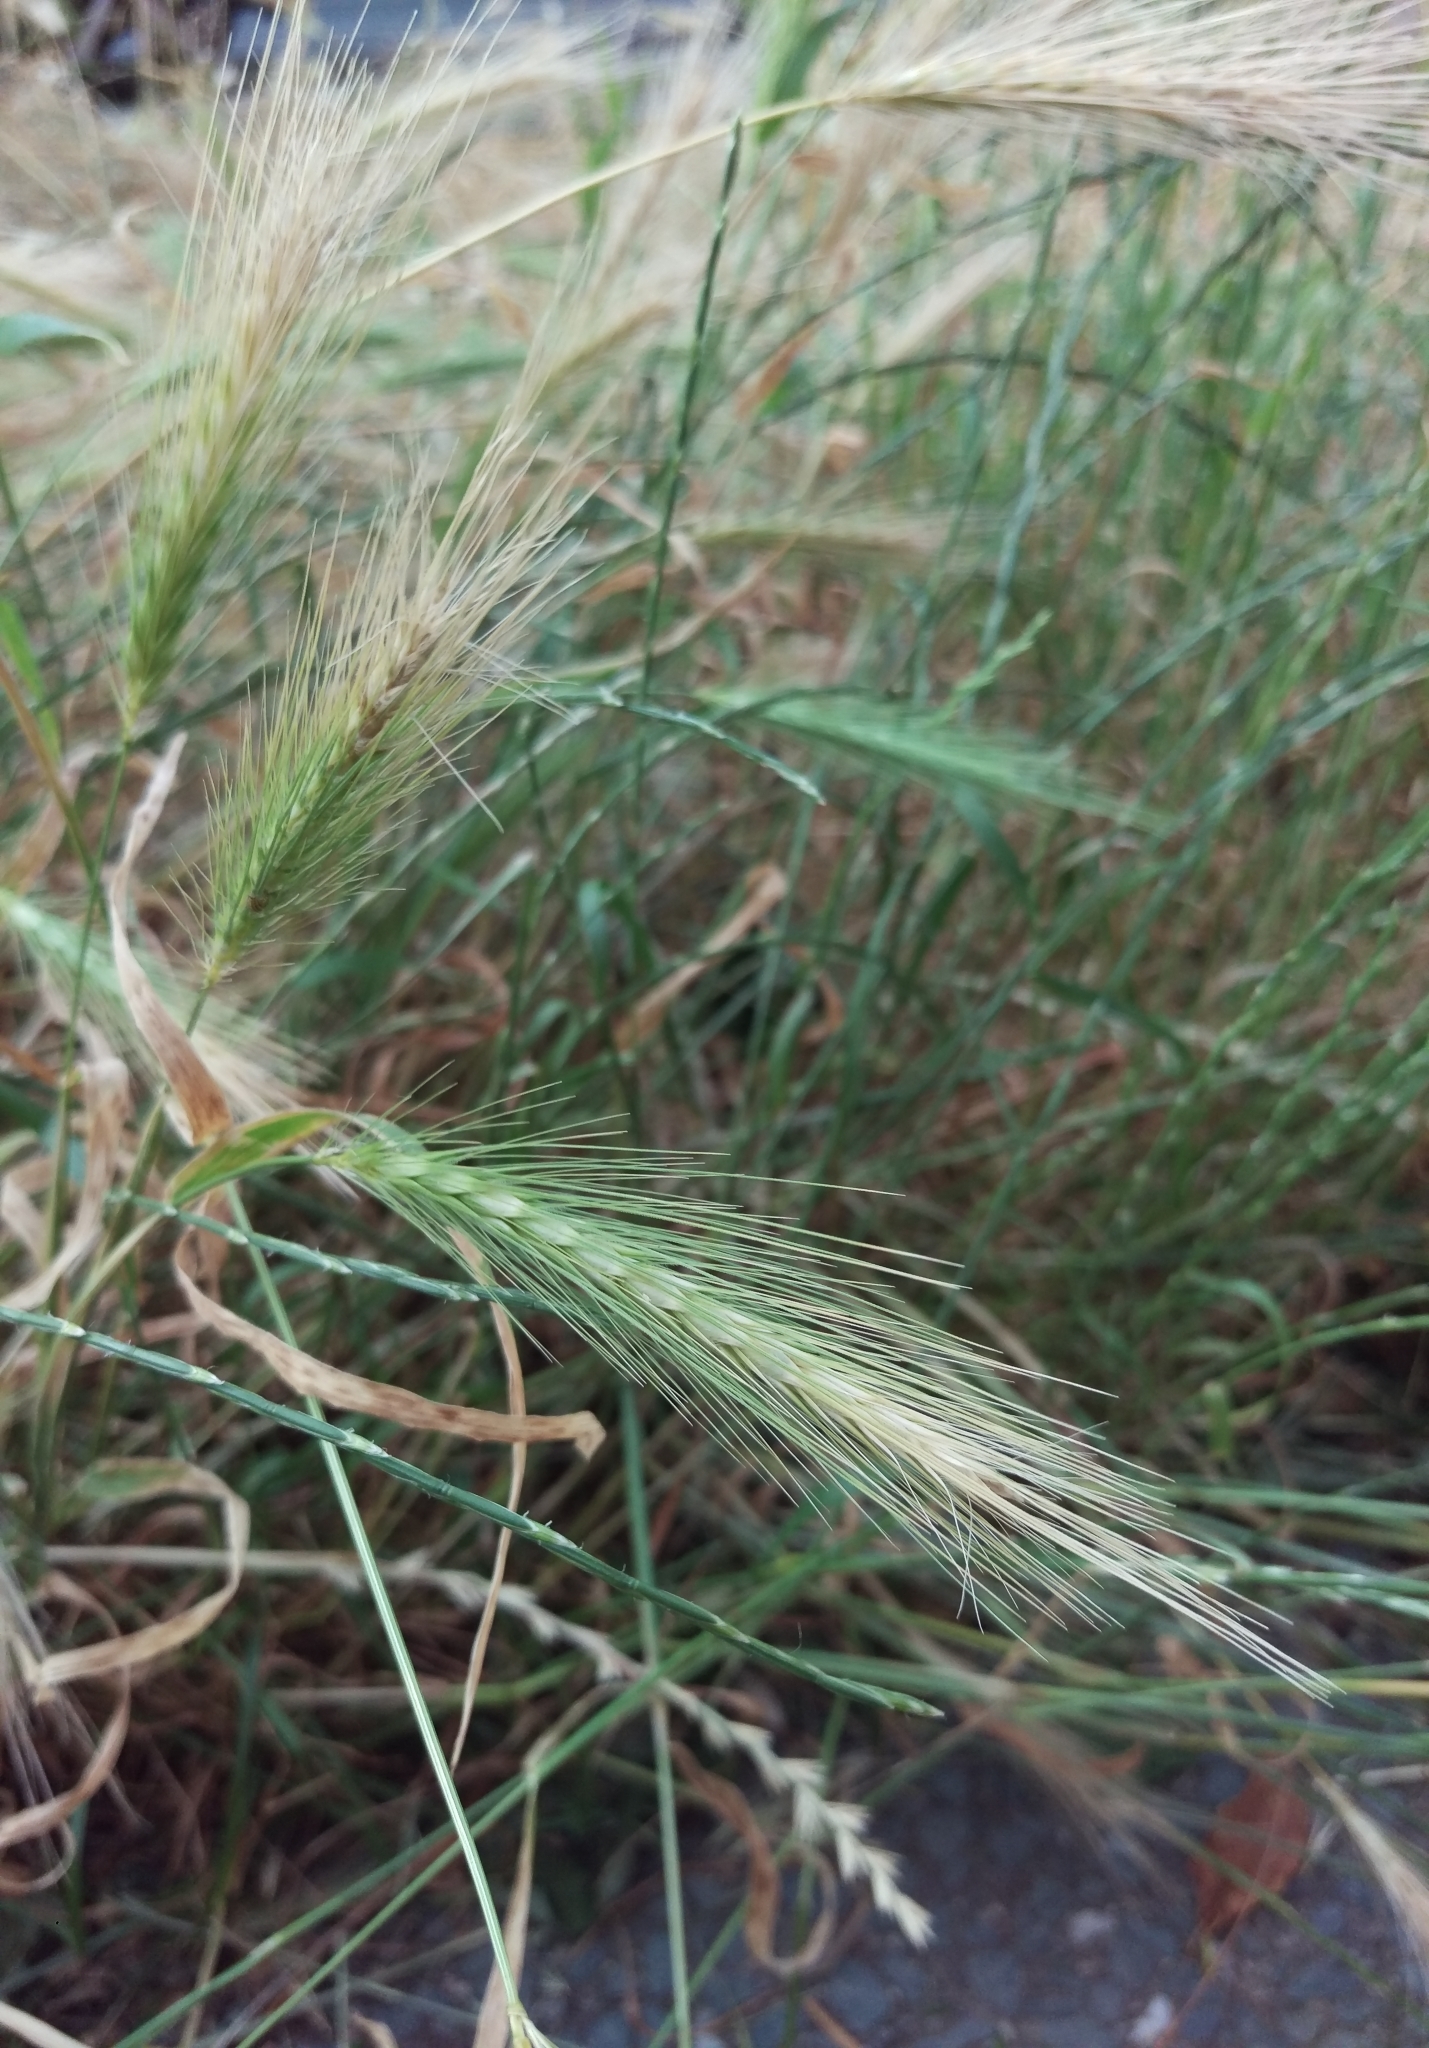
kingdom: Plantae
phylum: Tracheophyta
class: Liliopsida
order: Poales
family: Poaceae
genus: Hordeum
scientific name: Hordeum murinum
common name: Wall barley
